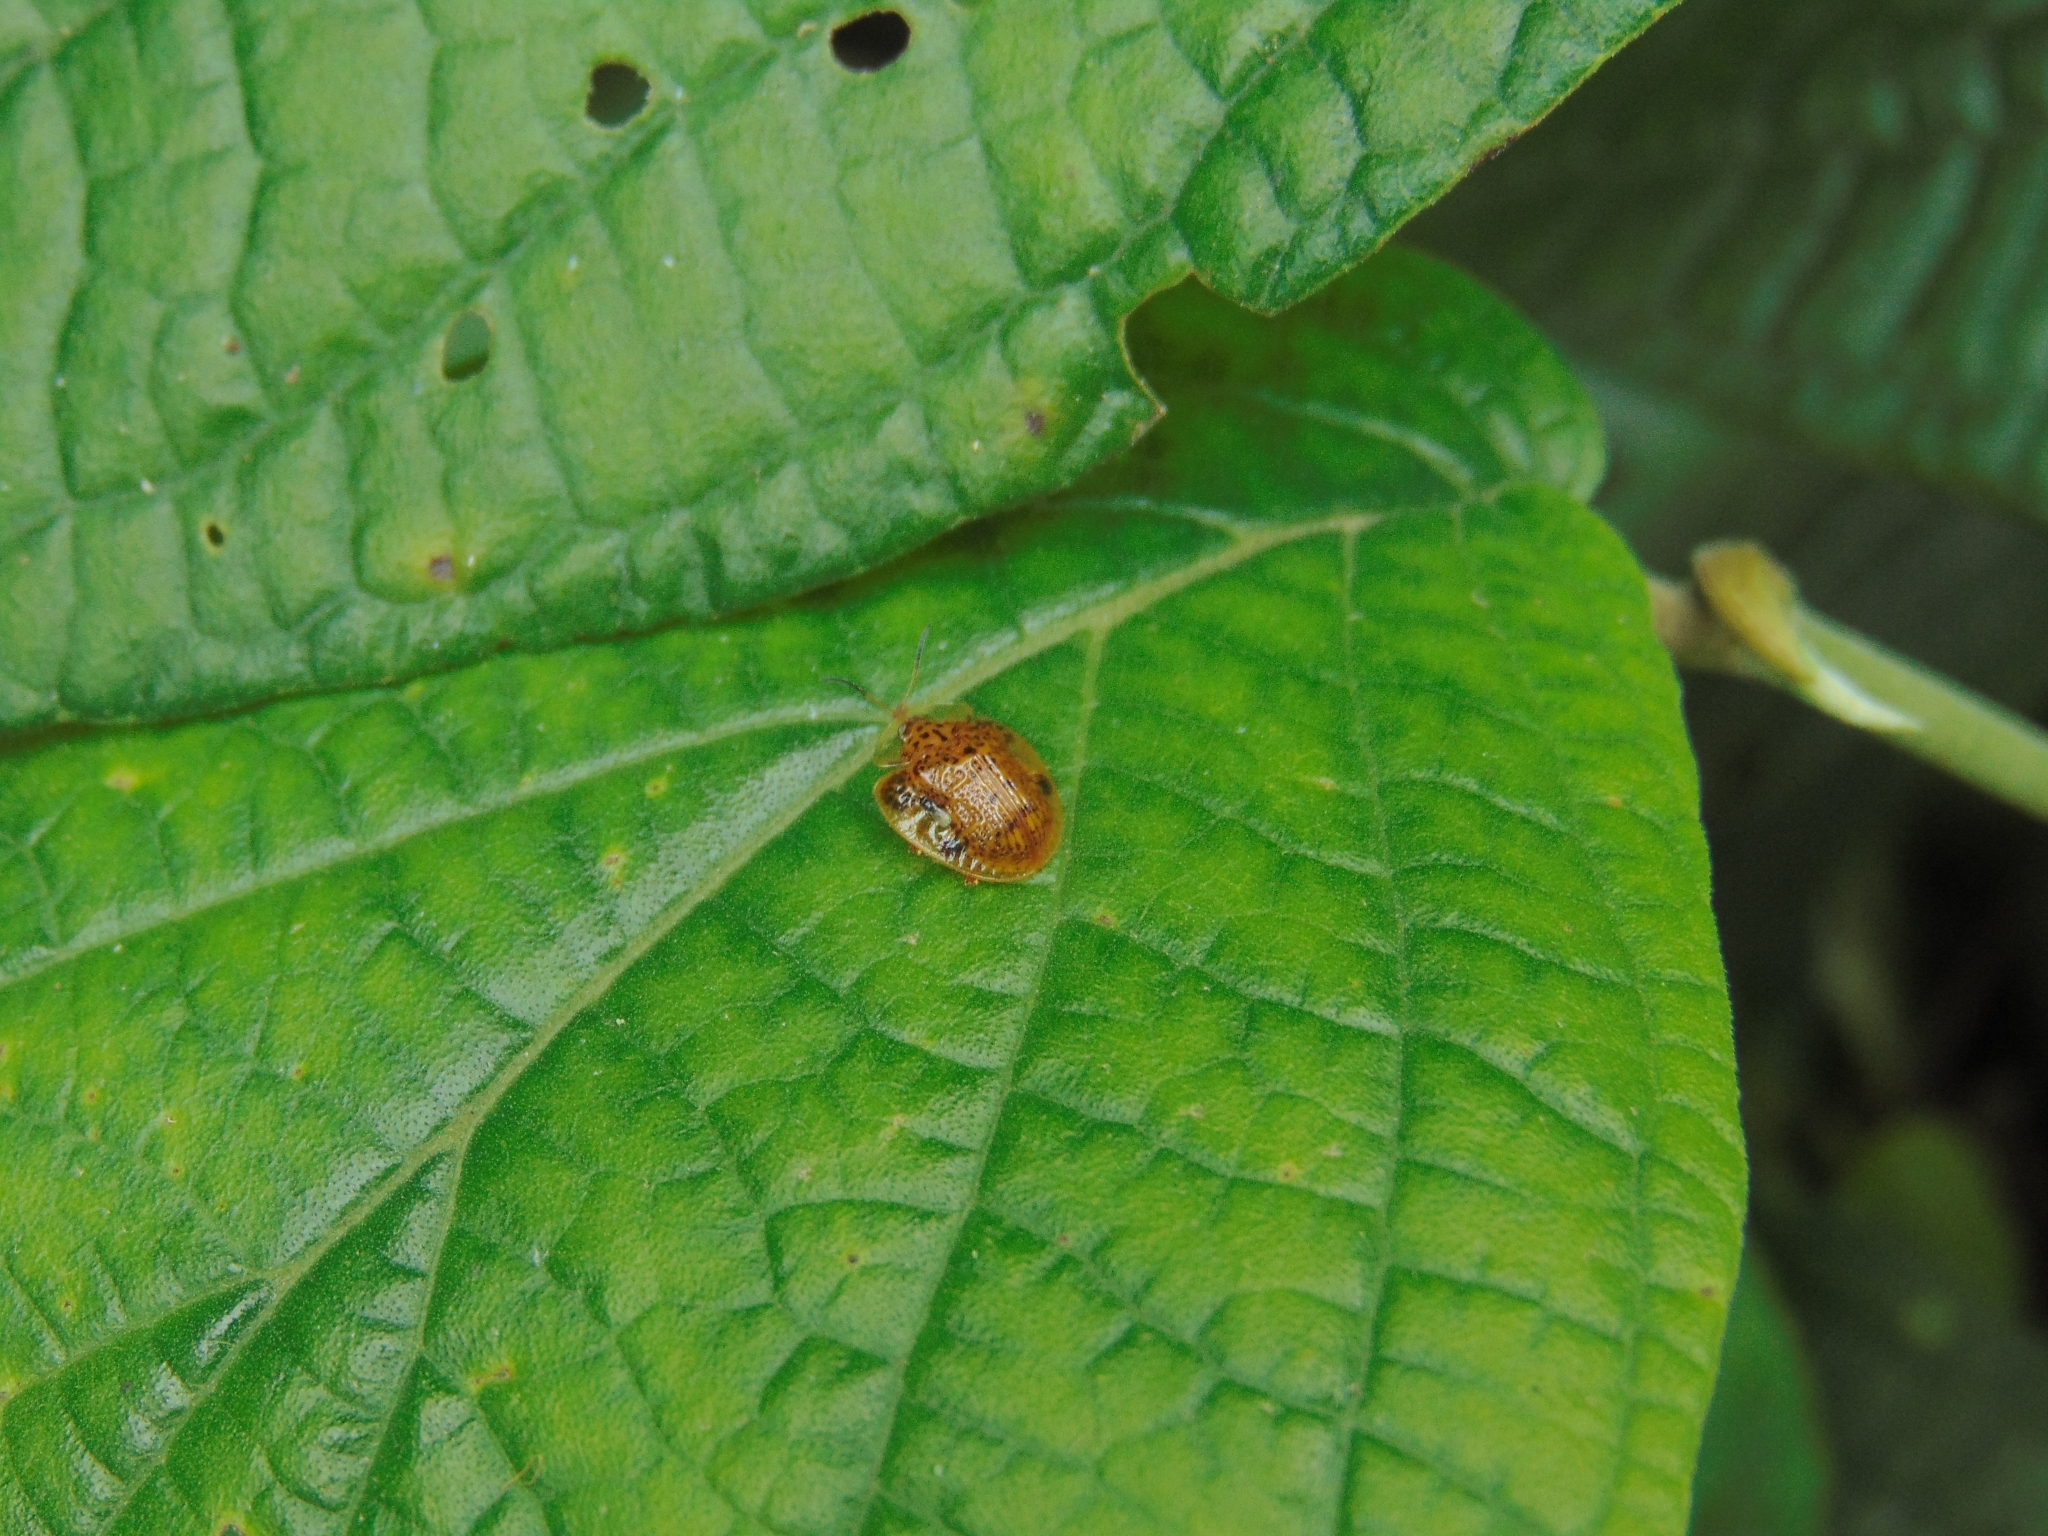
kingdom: Animalia
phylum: Arthropoda
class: Insecta
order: Coleoptera
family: Chrysomelidae
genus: Microctenochira
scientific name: Microctenochira aciculata
